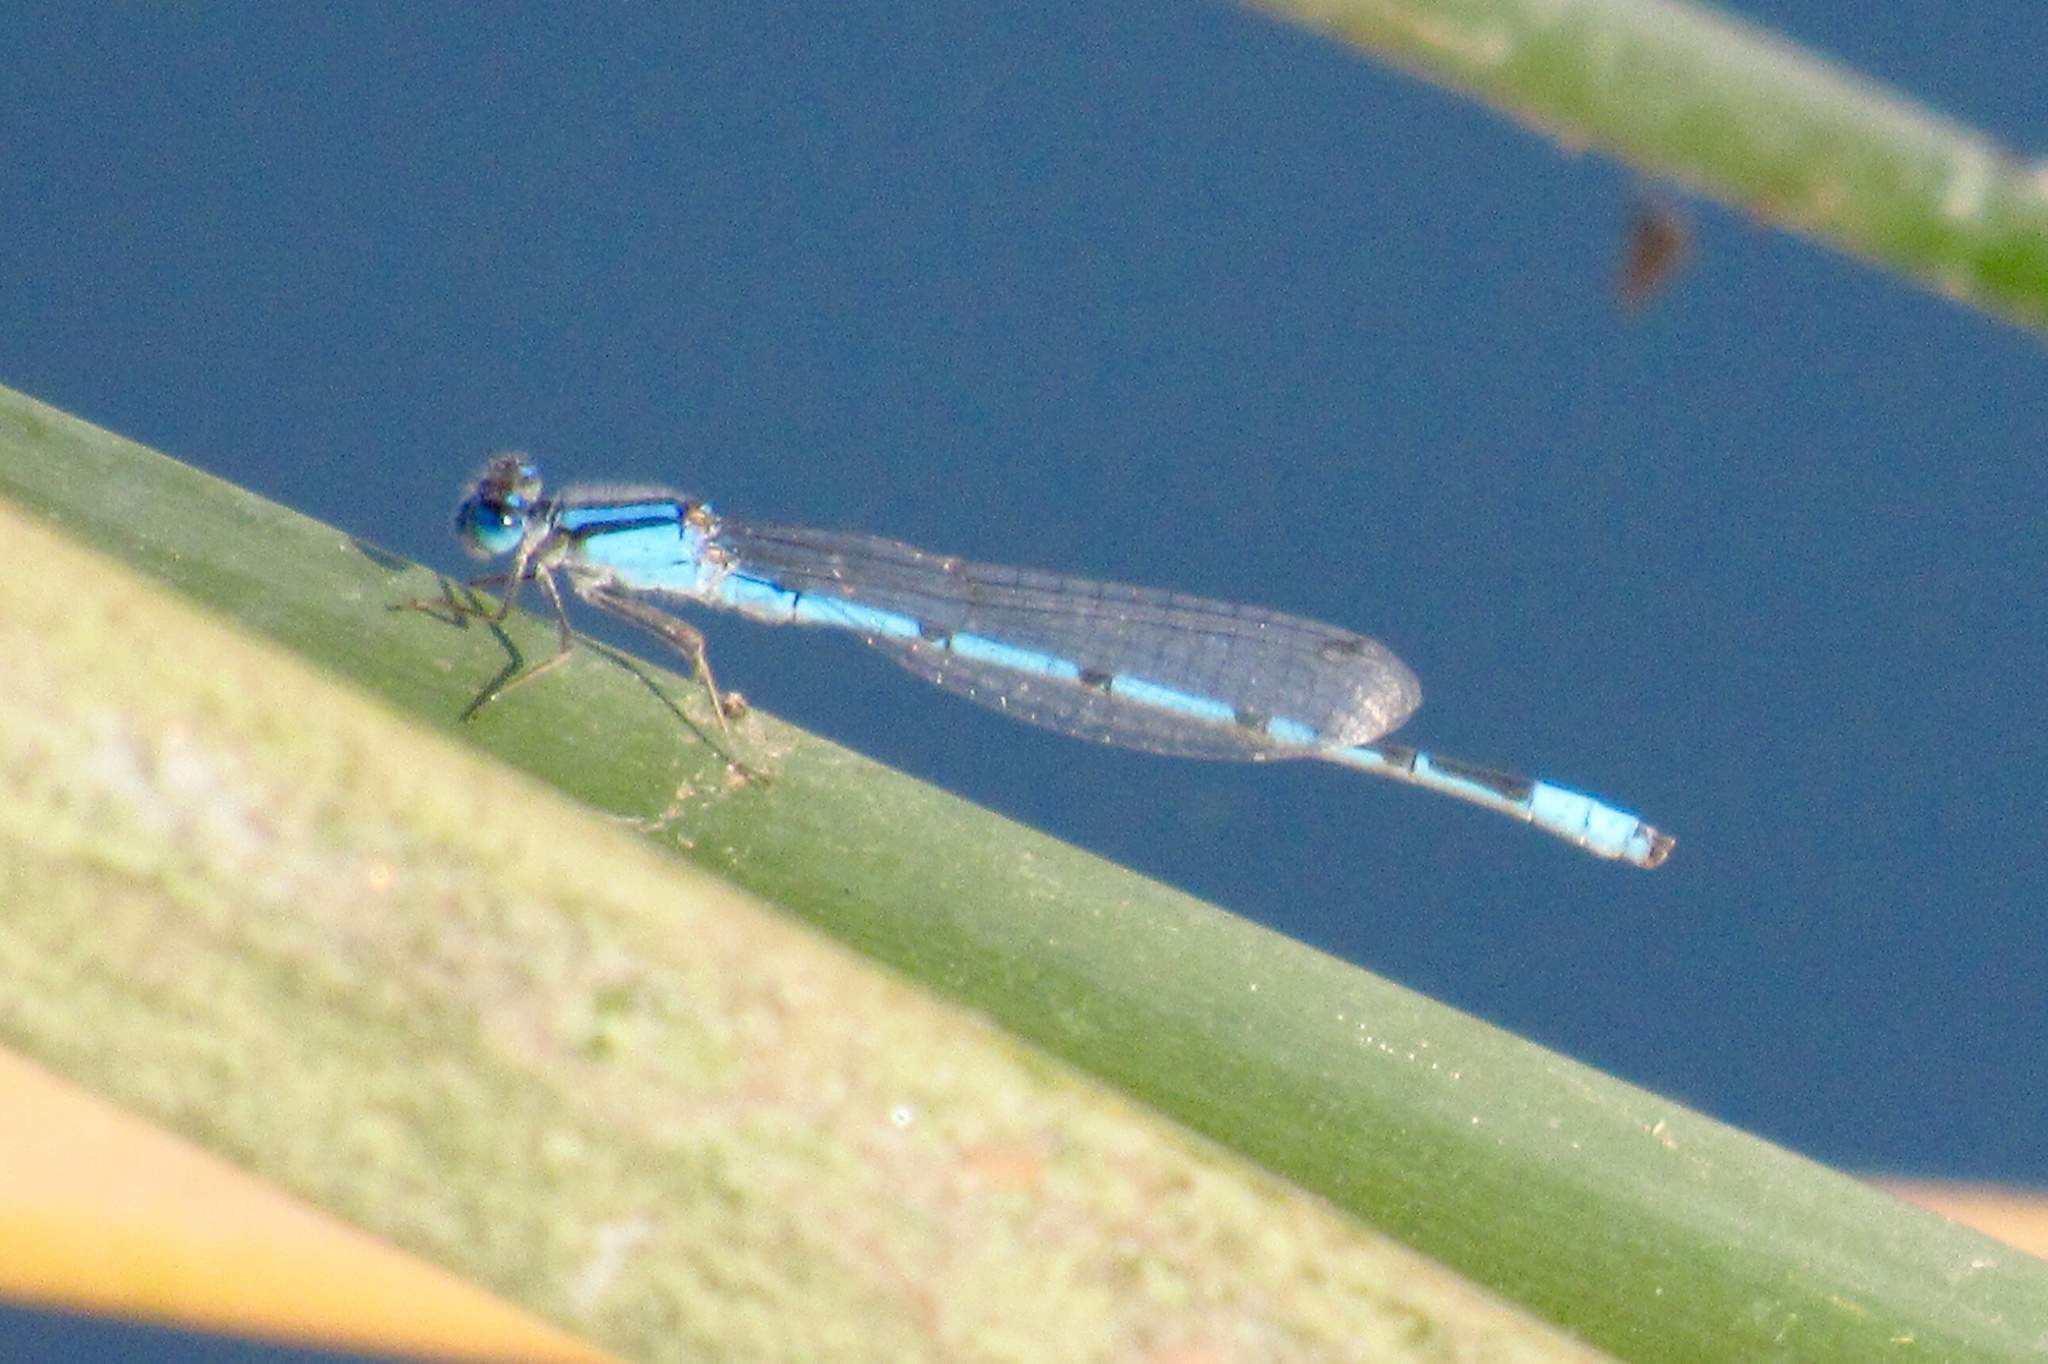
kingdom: Animalia
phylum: Arthropoda
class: Insecta
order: Odonata
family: Coenagrionidae
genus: Enallagma
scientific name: Enallagma civile
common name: Damselfly
